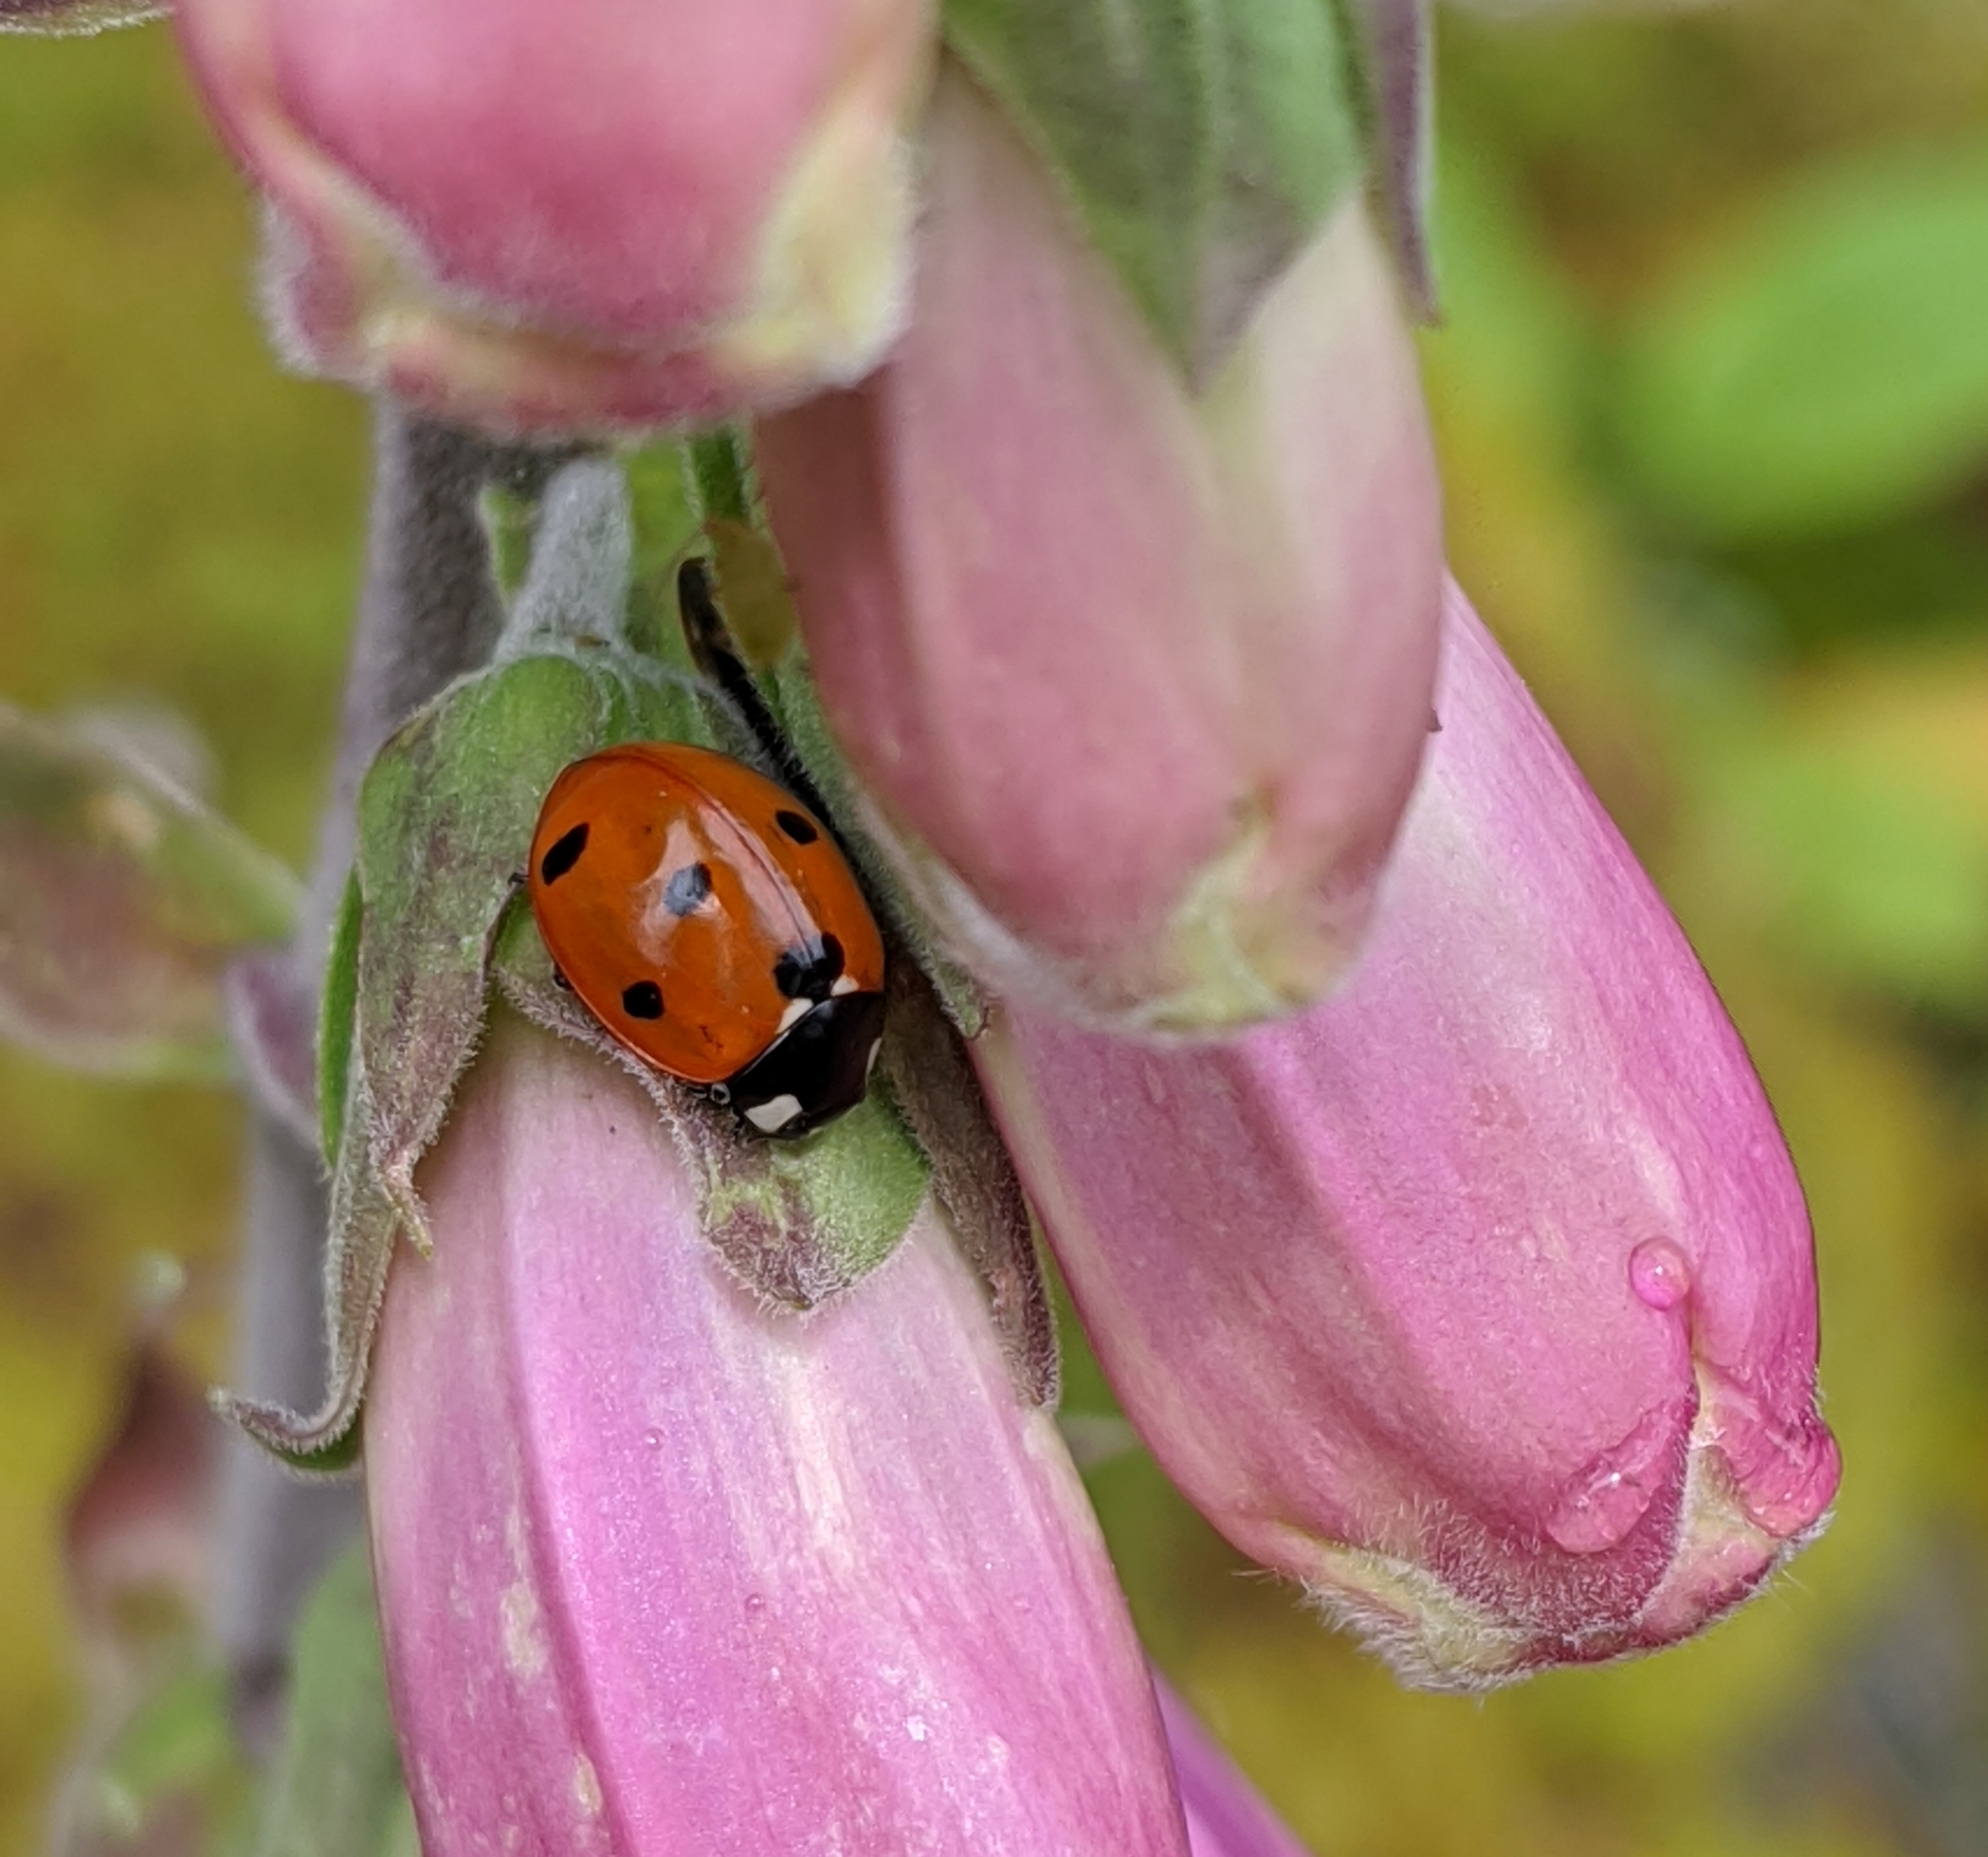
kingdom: Animalia
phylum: Arthropoda
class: Insecta
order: Coleoptera
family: Coccinellidae
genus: Coccinella
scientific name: Coccinella septempunctata
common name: Sevenspotted lady beetle
